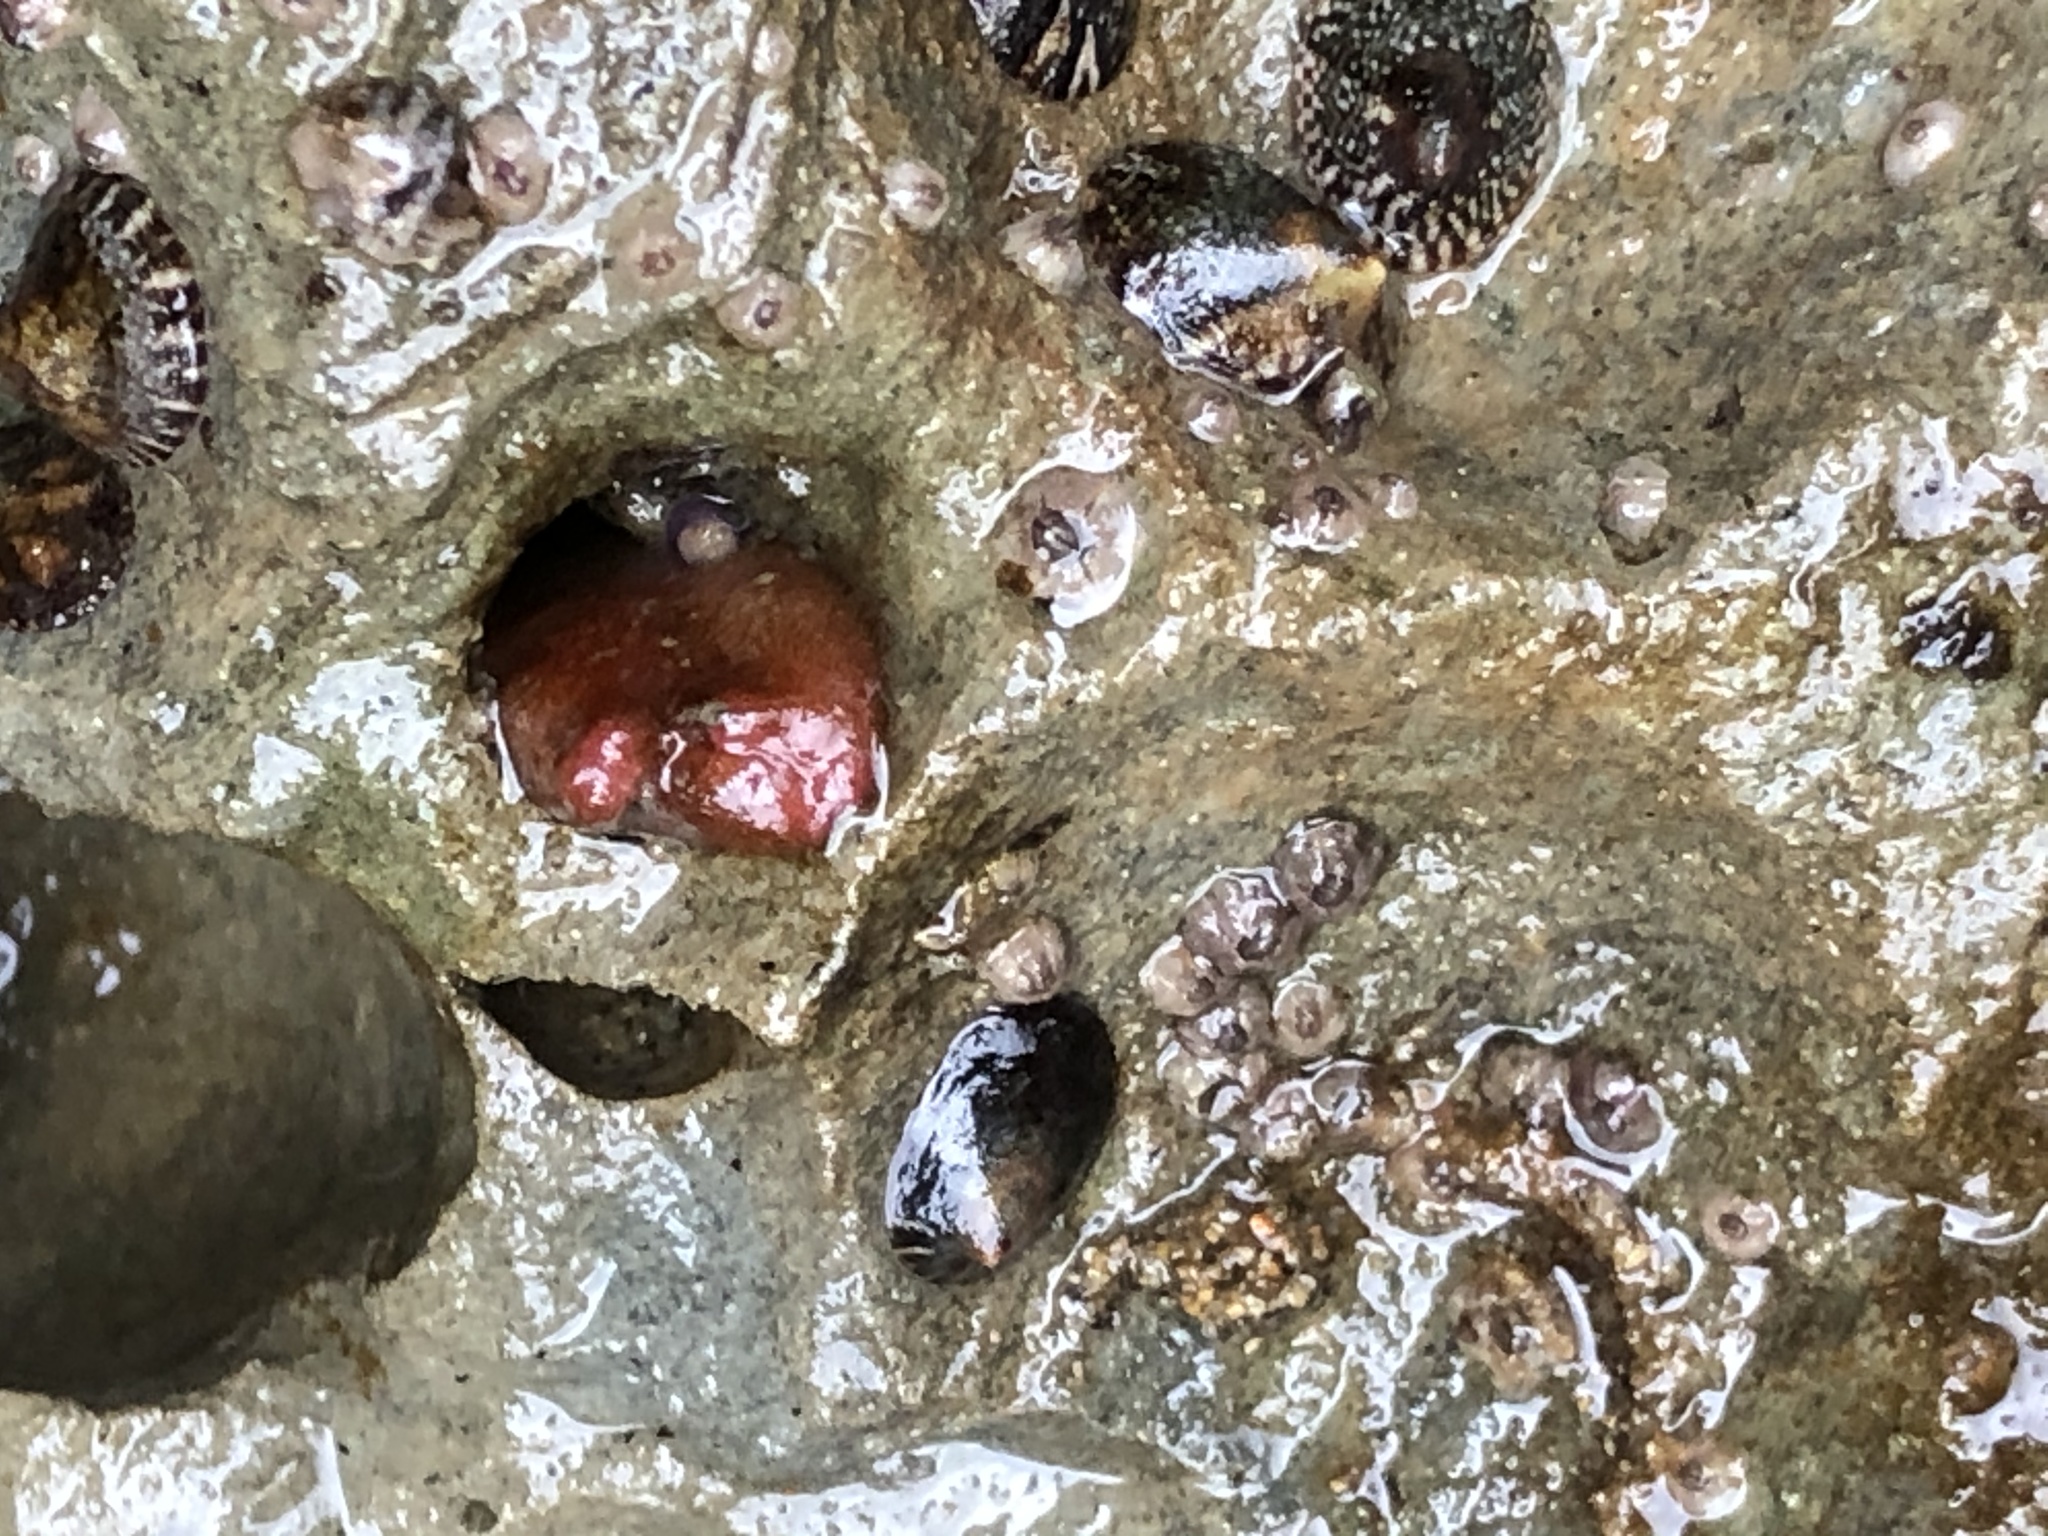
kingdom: Animalia
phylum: Mollusca
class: Bivalvia
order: Adapedonta
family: Hiatellidae
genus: Hiatella
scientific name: Hiatella arctica
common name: Arctic hiatella
